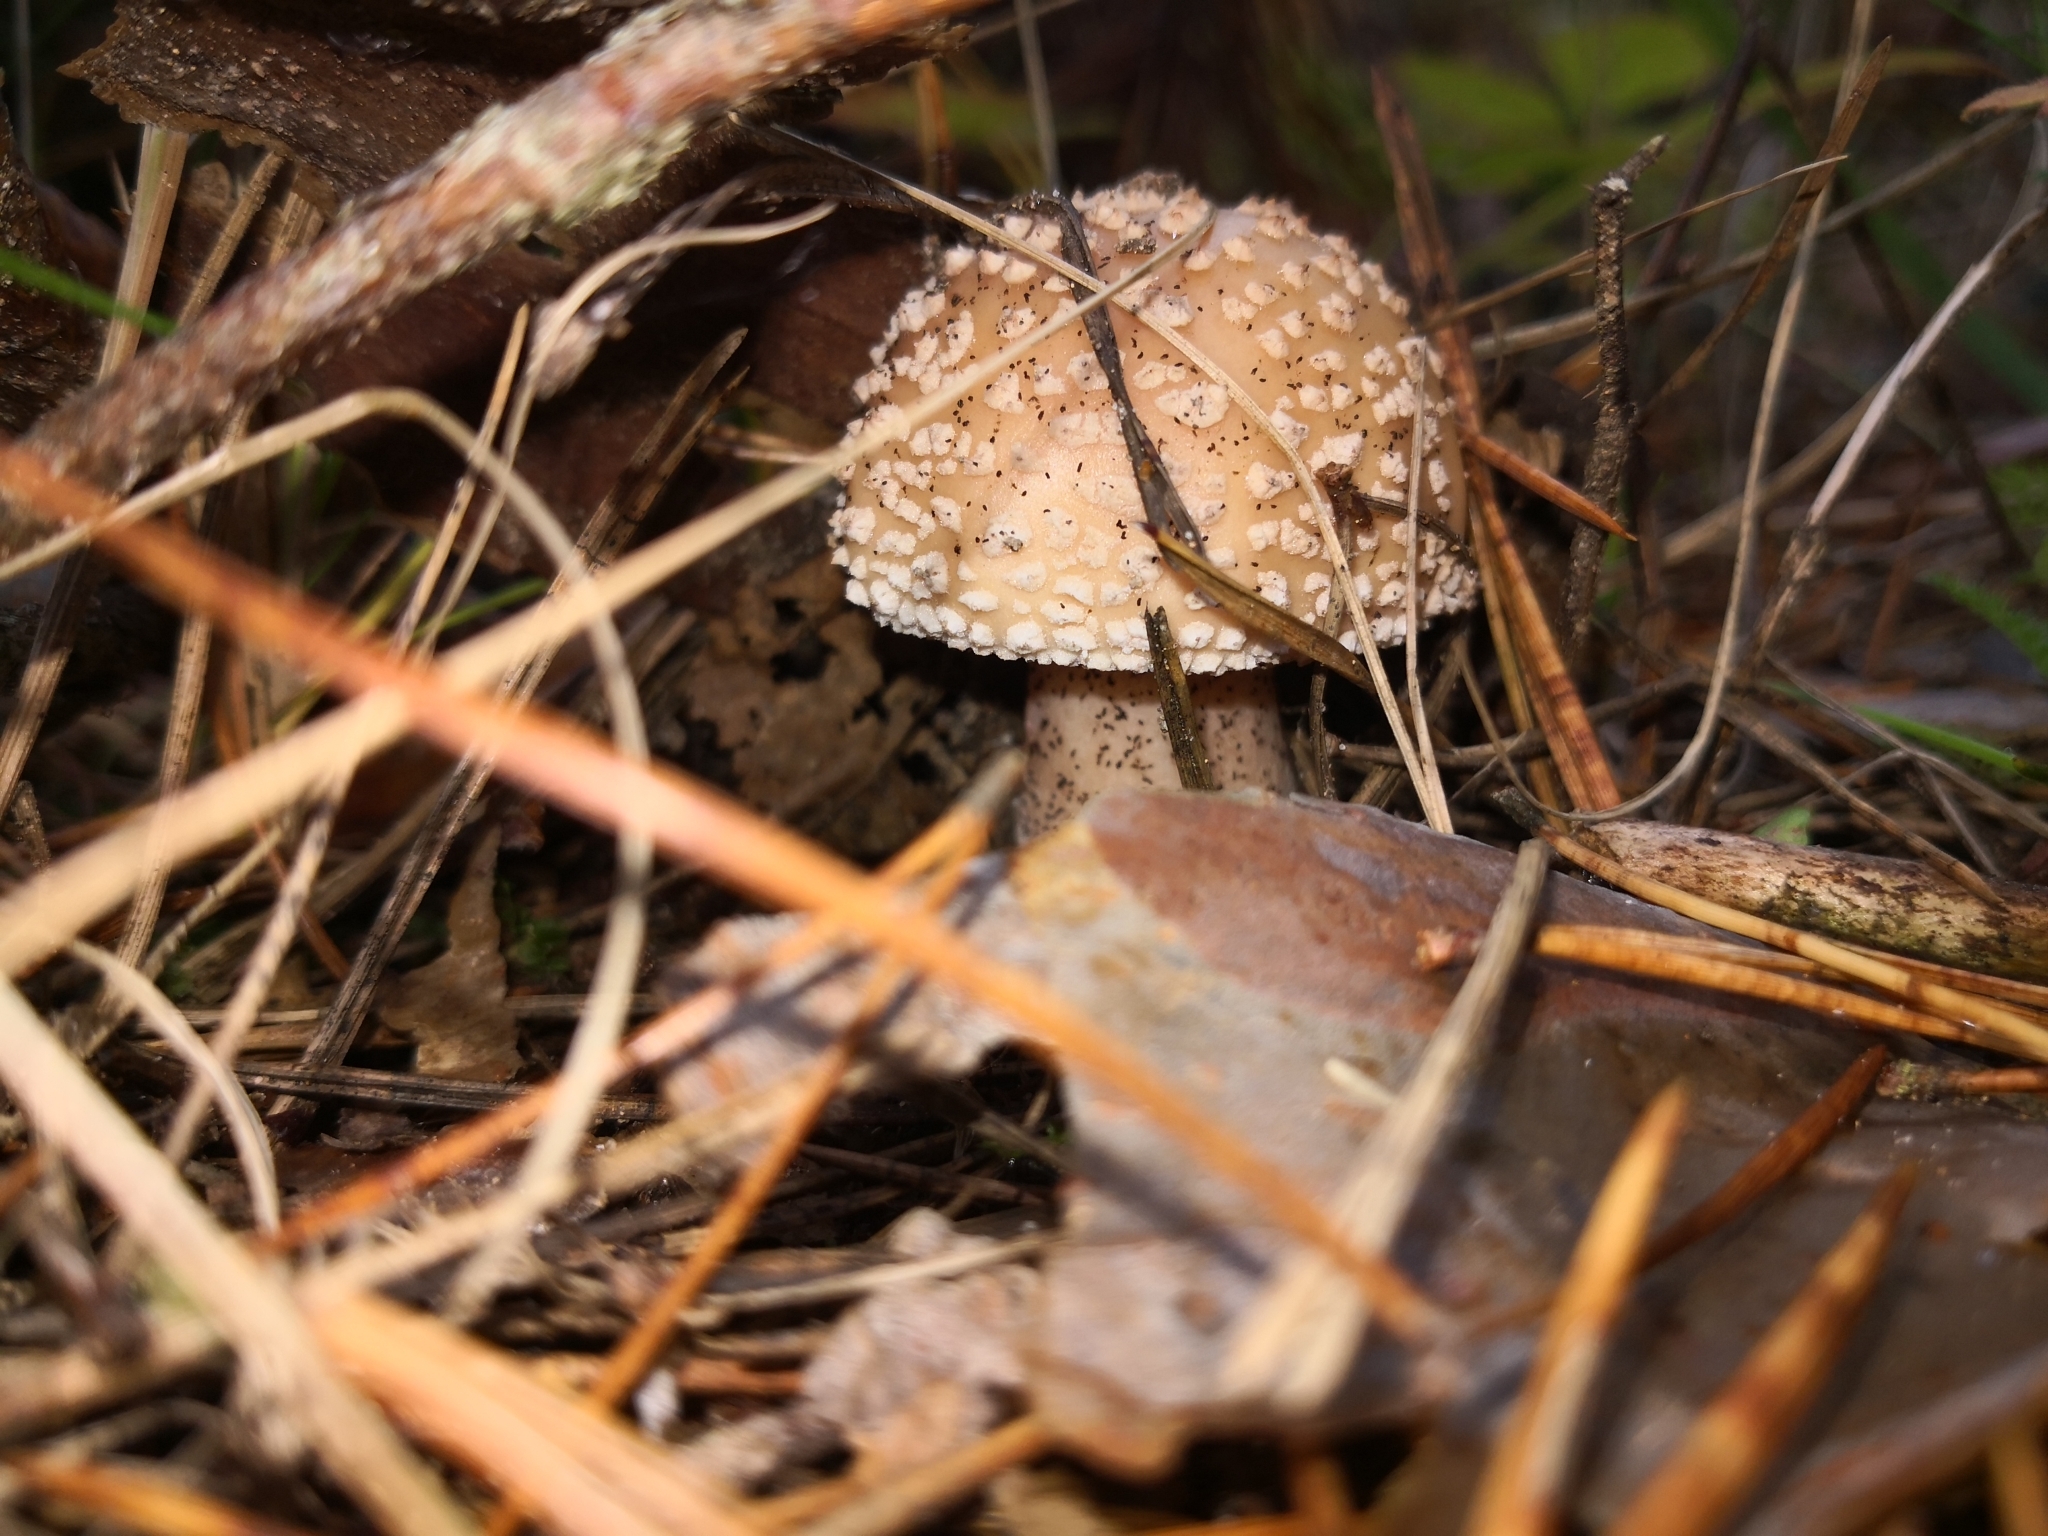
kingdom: Fungi
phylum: Basidiomycota
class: Agaricomycetes
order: Agaricales
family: Amanitaceae
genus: Amanita
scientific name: Amanita rubescens
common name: Blusher
